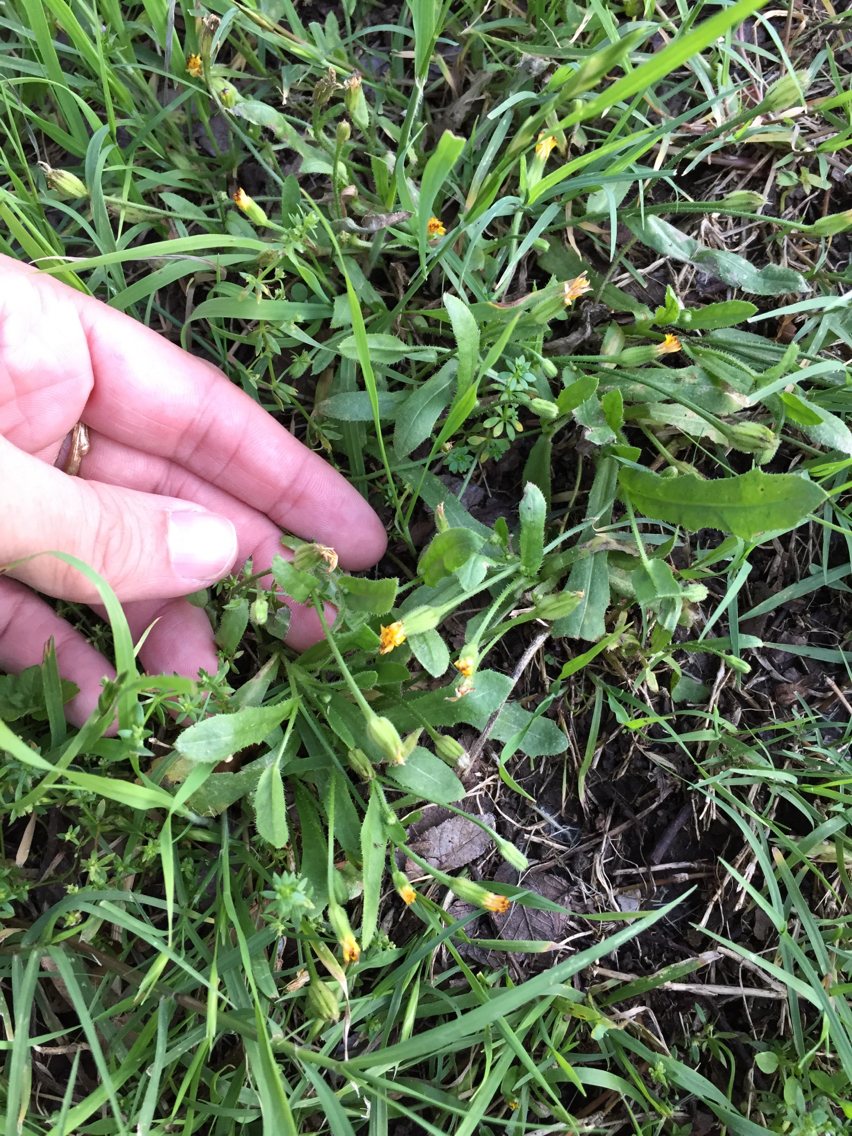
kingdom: Plantae
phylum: Tracheophyta
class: Magnoliopsida
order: Asterales
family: Asteraceae
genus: Hedypnois
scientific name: Hedypnois rhagadioloides
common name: Cretan weed
